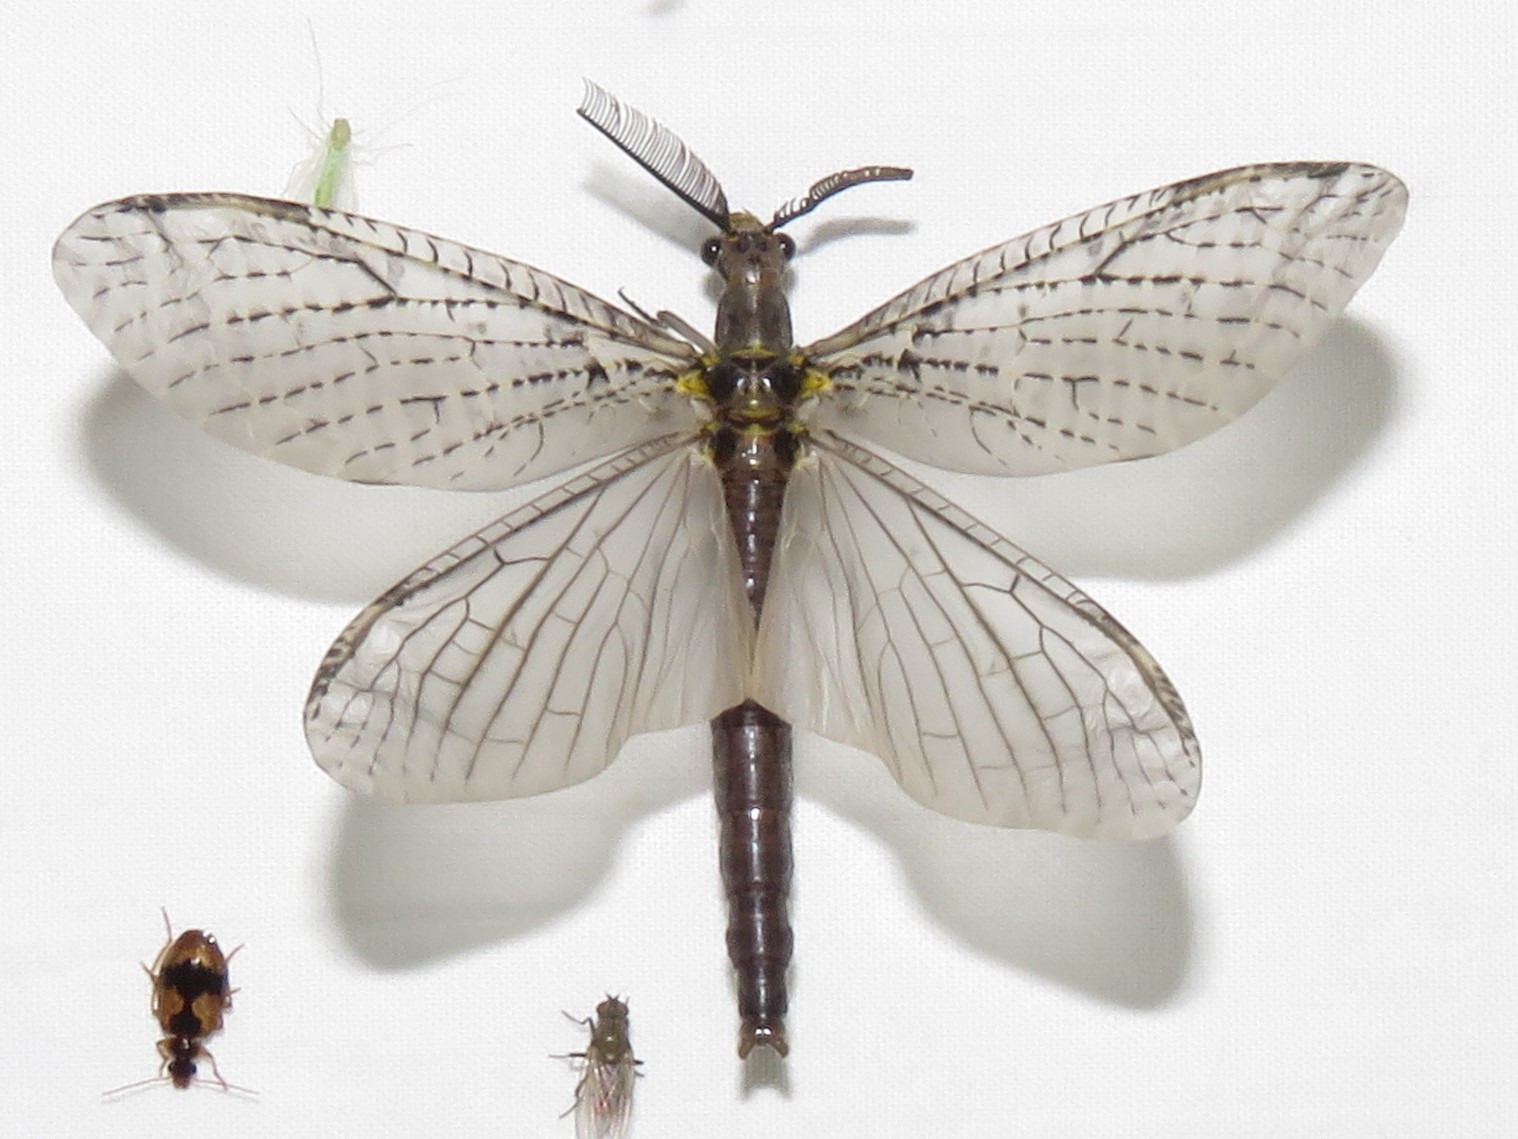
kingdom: Animalia
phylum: Arthropoda
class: Insecta
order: Megaloptera
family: Corydalidae
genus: Chauliodes
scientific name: Chauliodes rastricornis
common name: Spring fishfly
